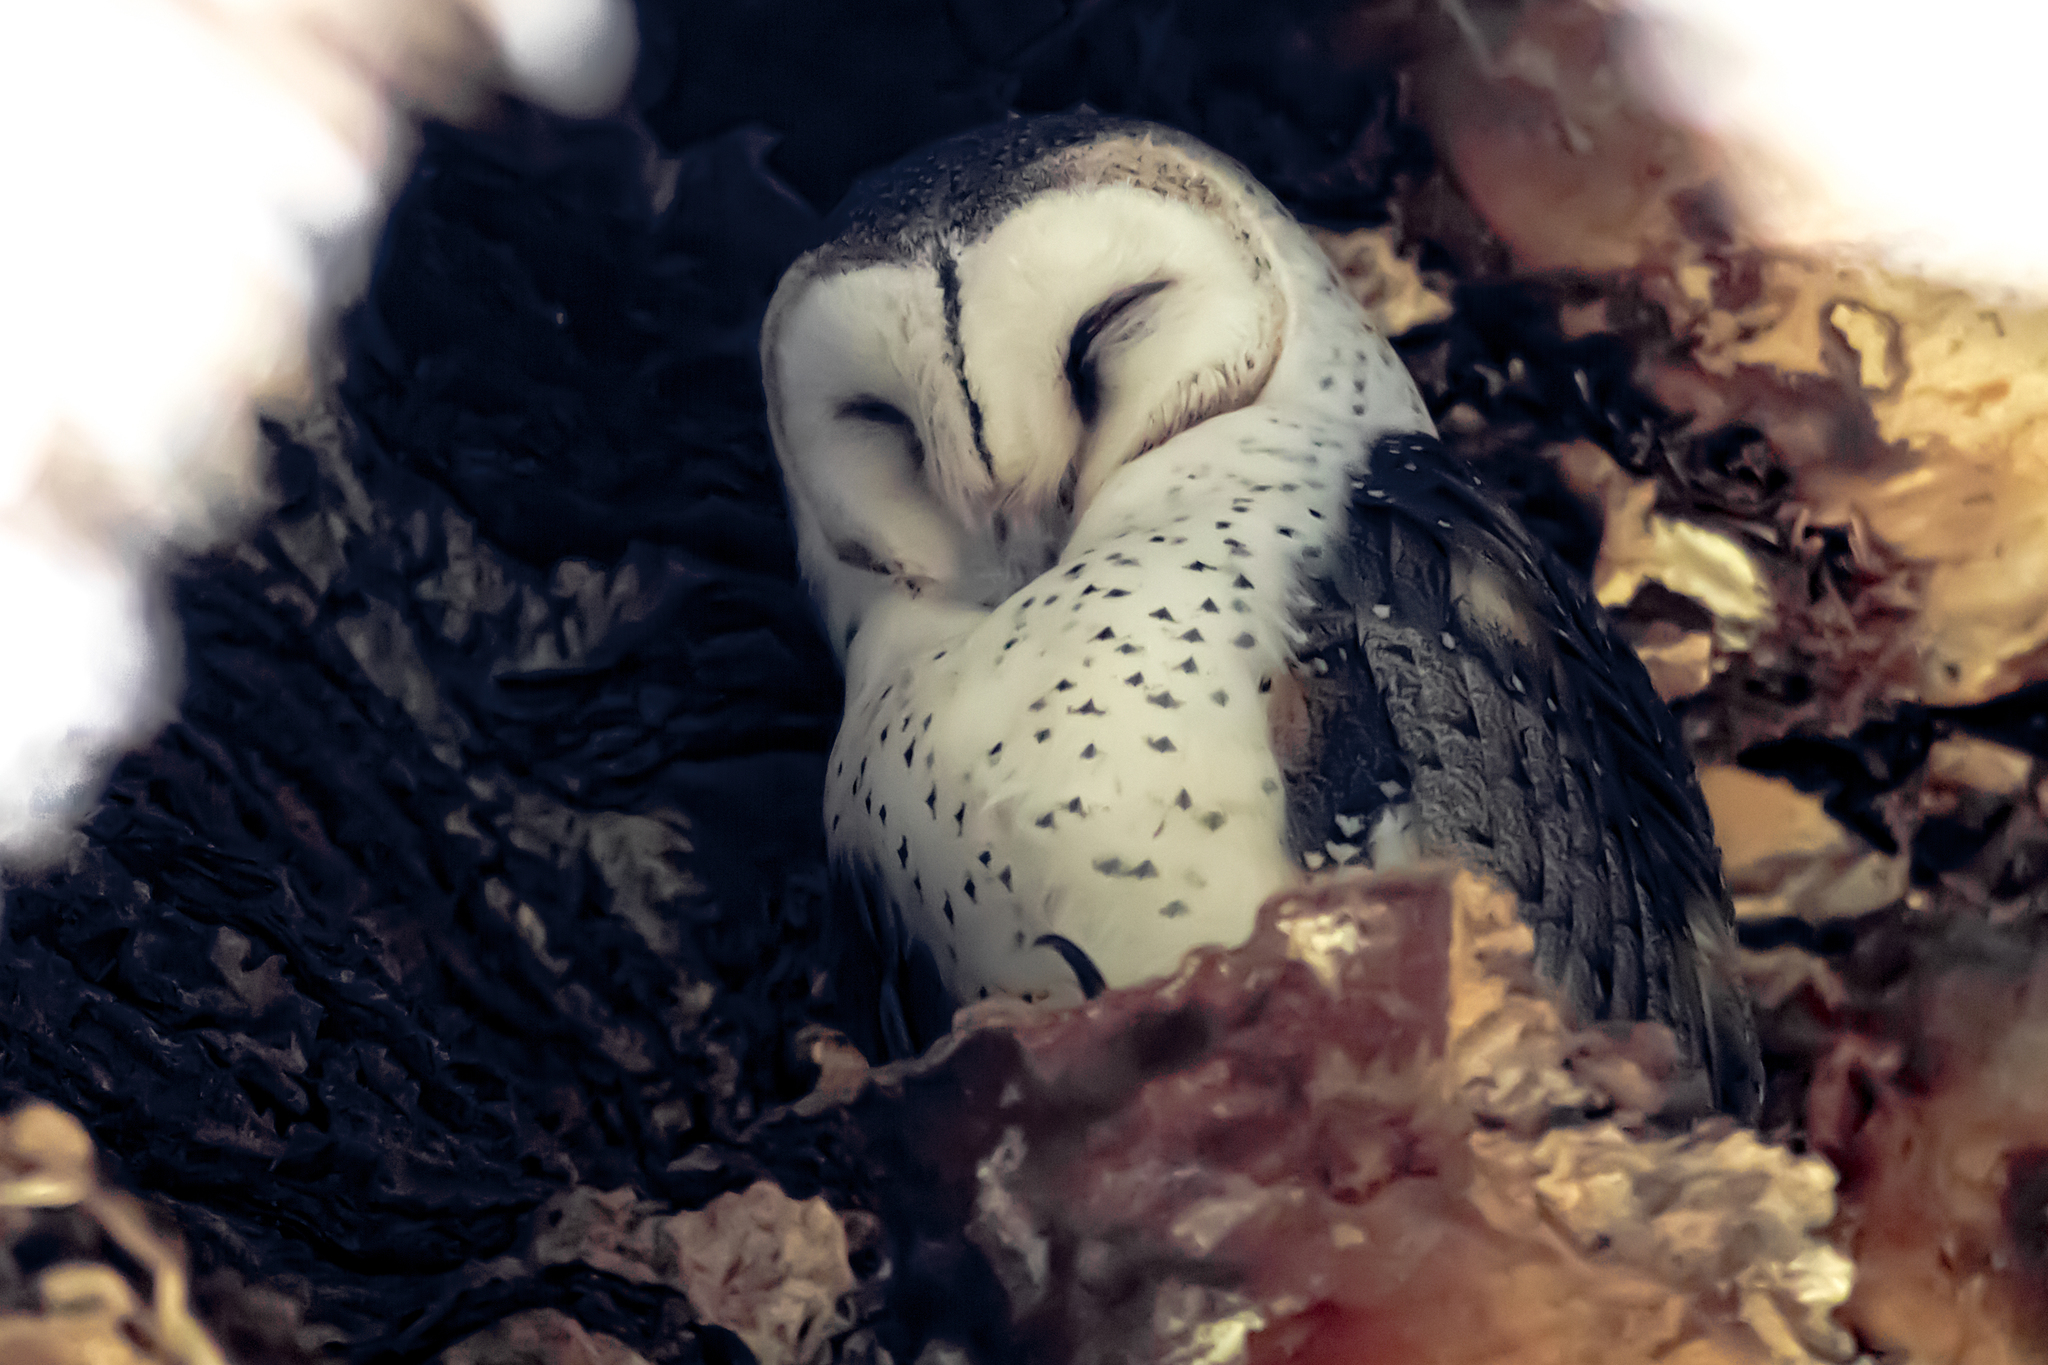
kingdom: Animalia
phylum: Chordata
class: Aves
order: Strigiformes
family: Tytonidae
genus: Tyto
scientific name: Tyto javanica
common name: Eastern barn owl
